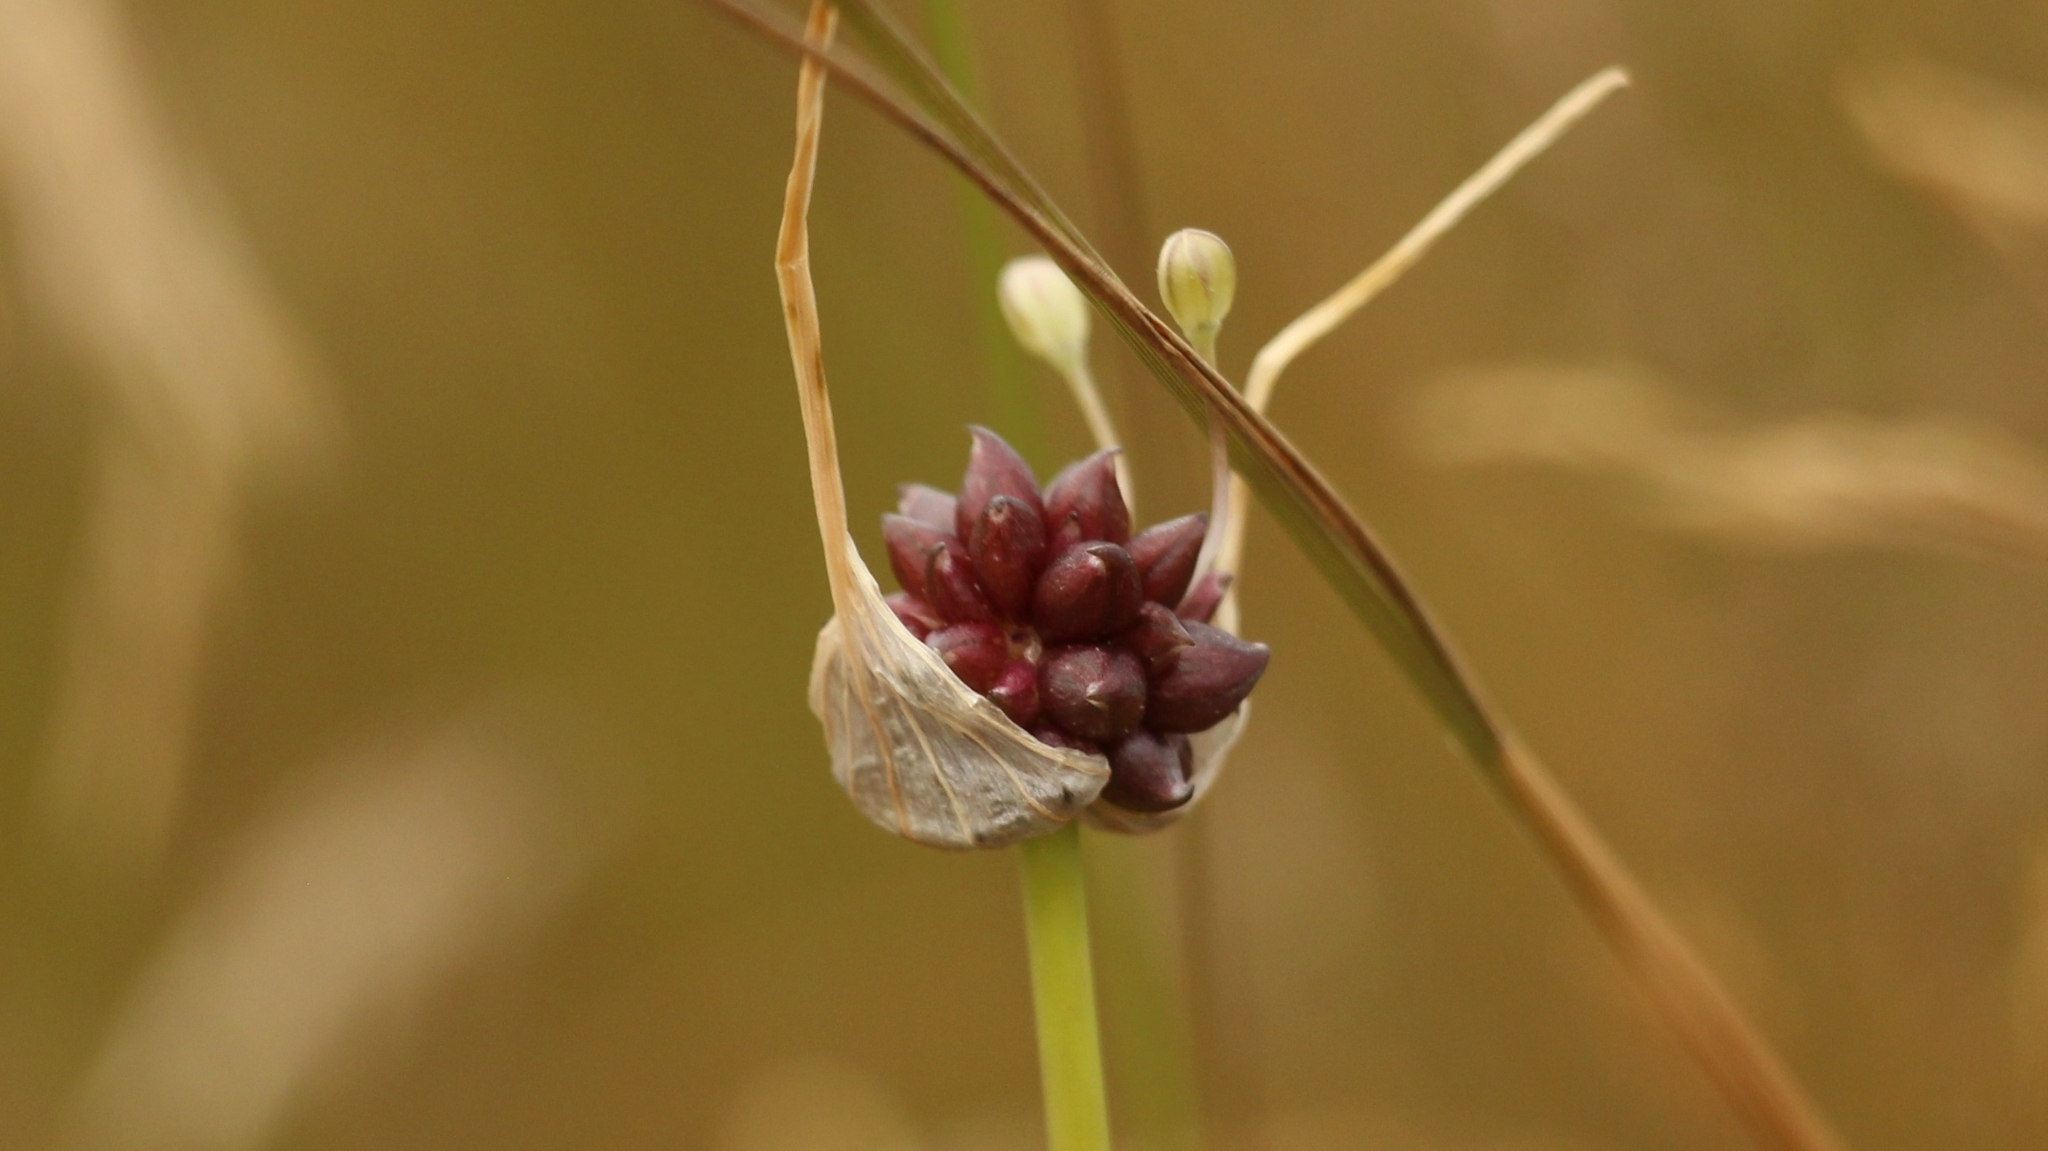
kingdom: Plantae
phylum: Tracheophyta
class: Liliopsida
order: Asparagales
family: Amaryllidaceae
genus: Allium
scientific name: Allium oleraceum
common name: Field garlic
